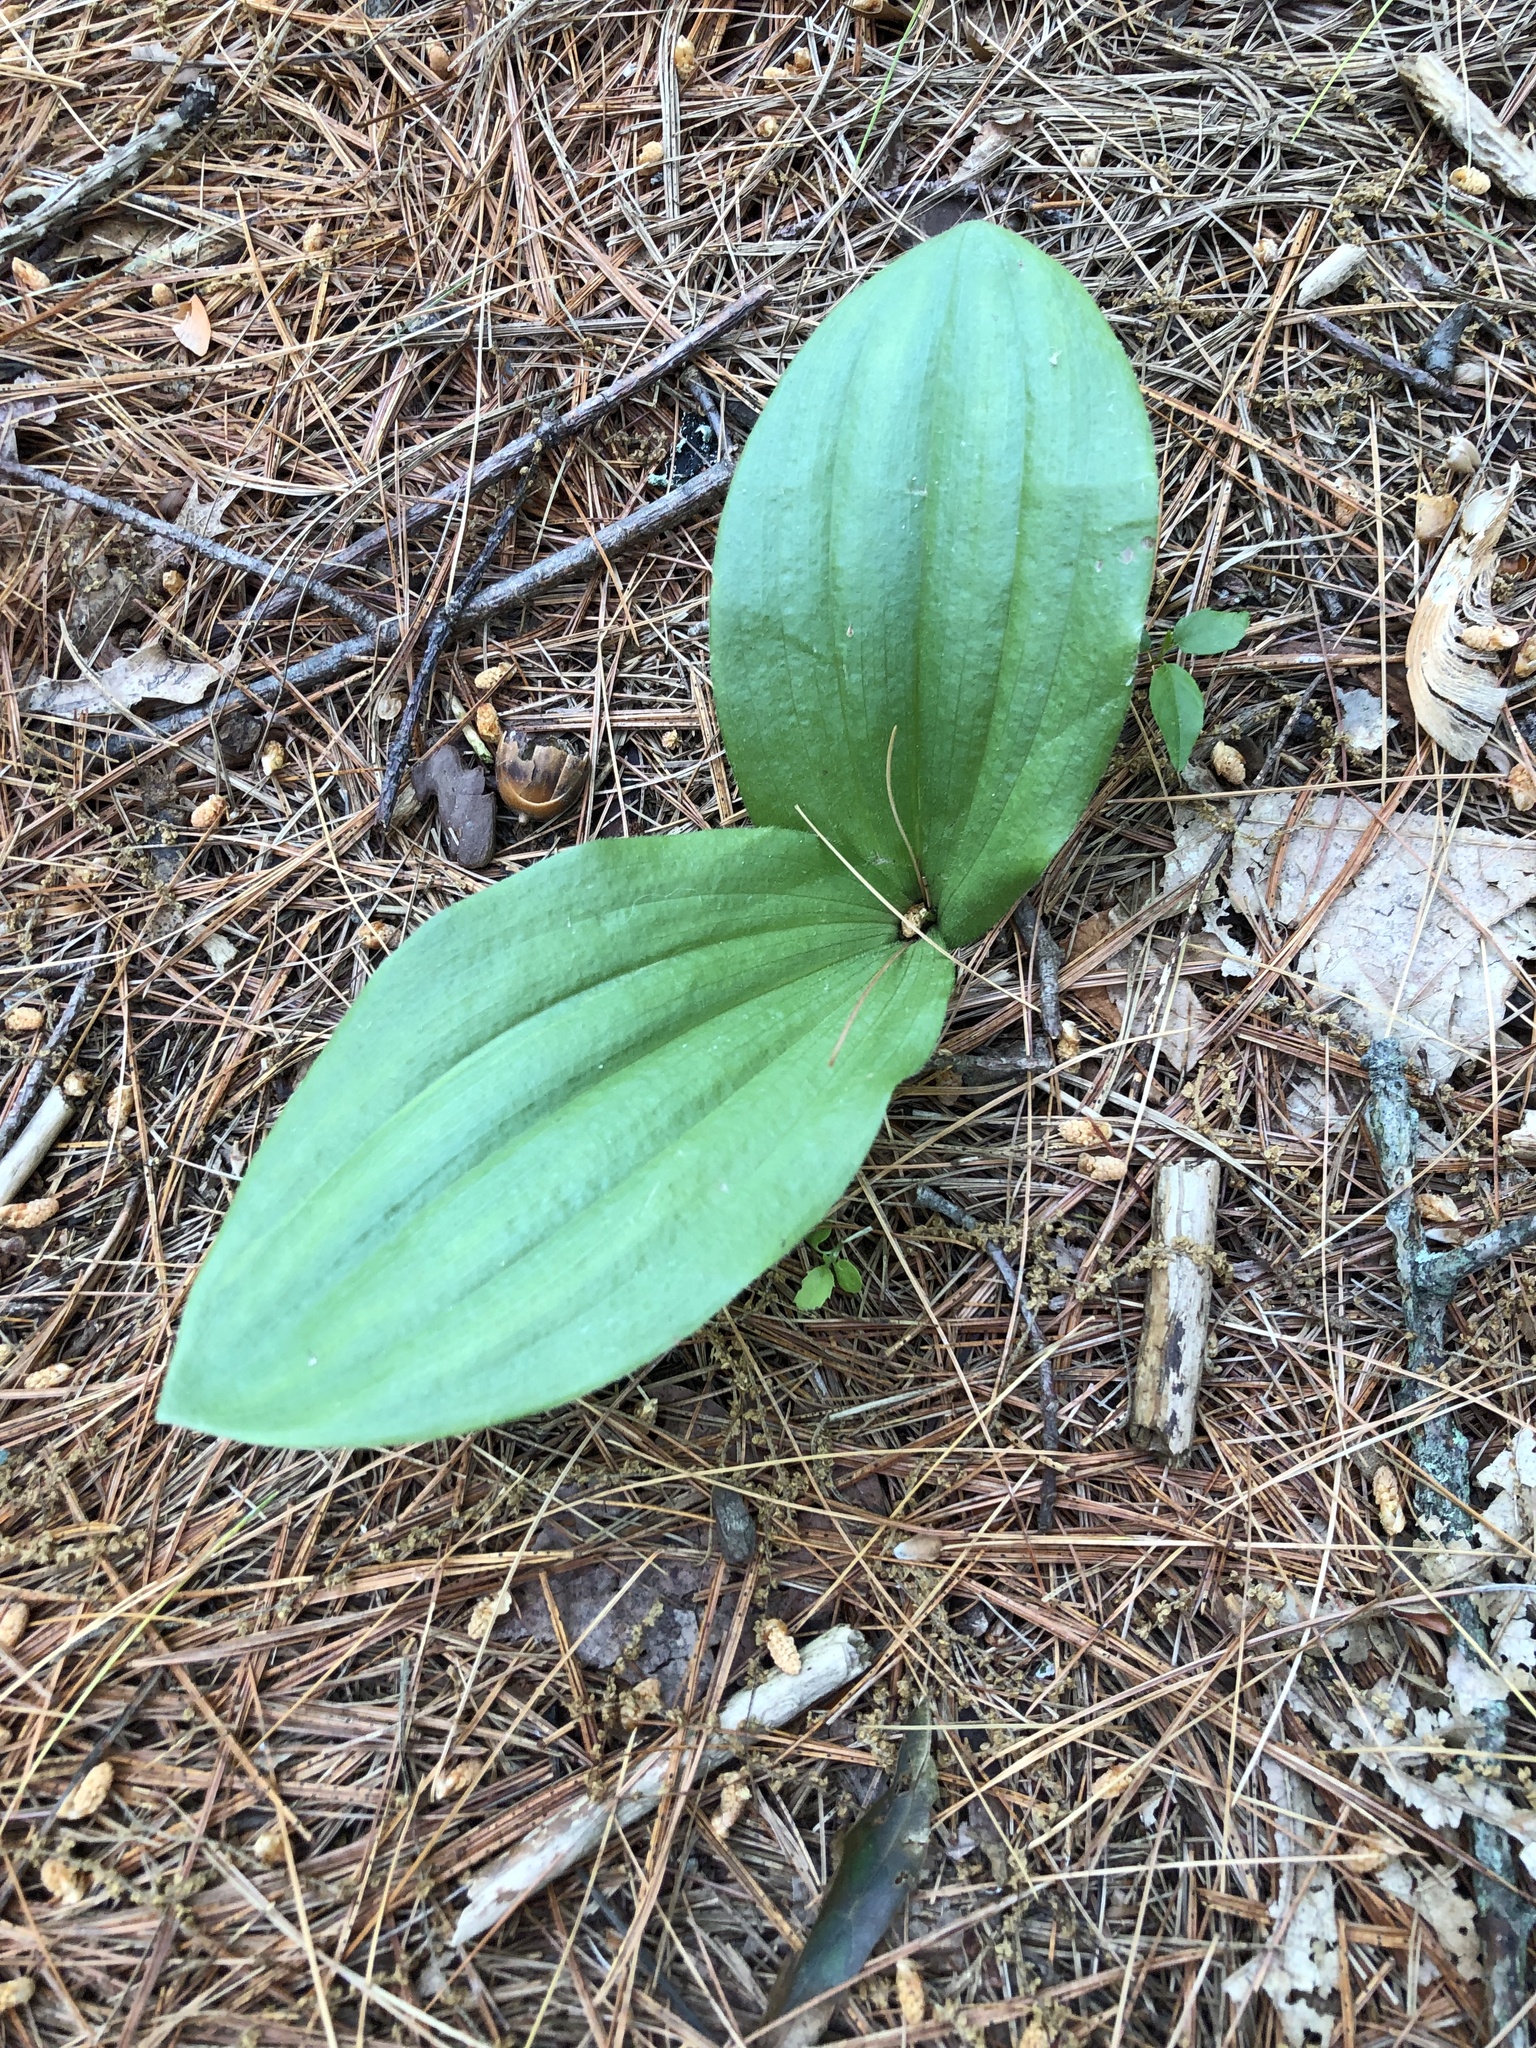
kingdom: Plantae
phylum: Tracheophyta
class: Liliopsida
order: Asparagales
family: Orchidaceae
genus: Cypripedium
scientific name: Cypripedium acaule
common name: Pink lady's-slipper
